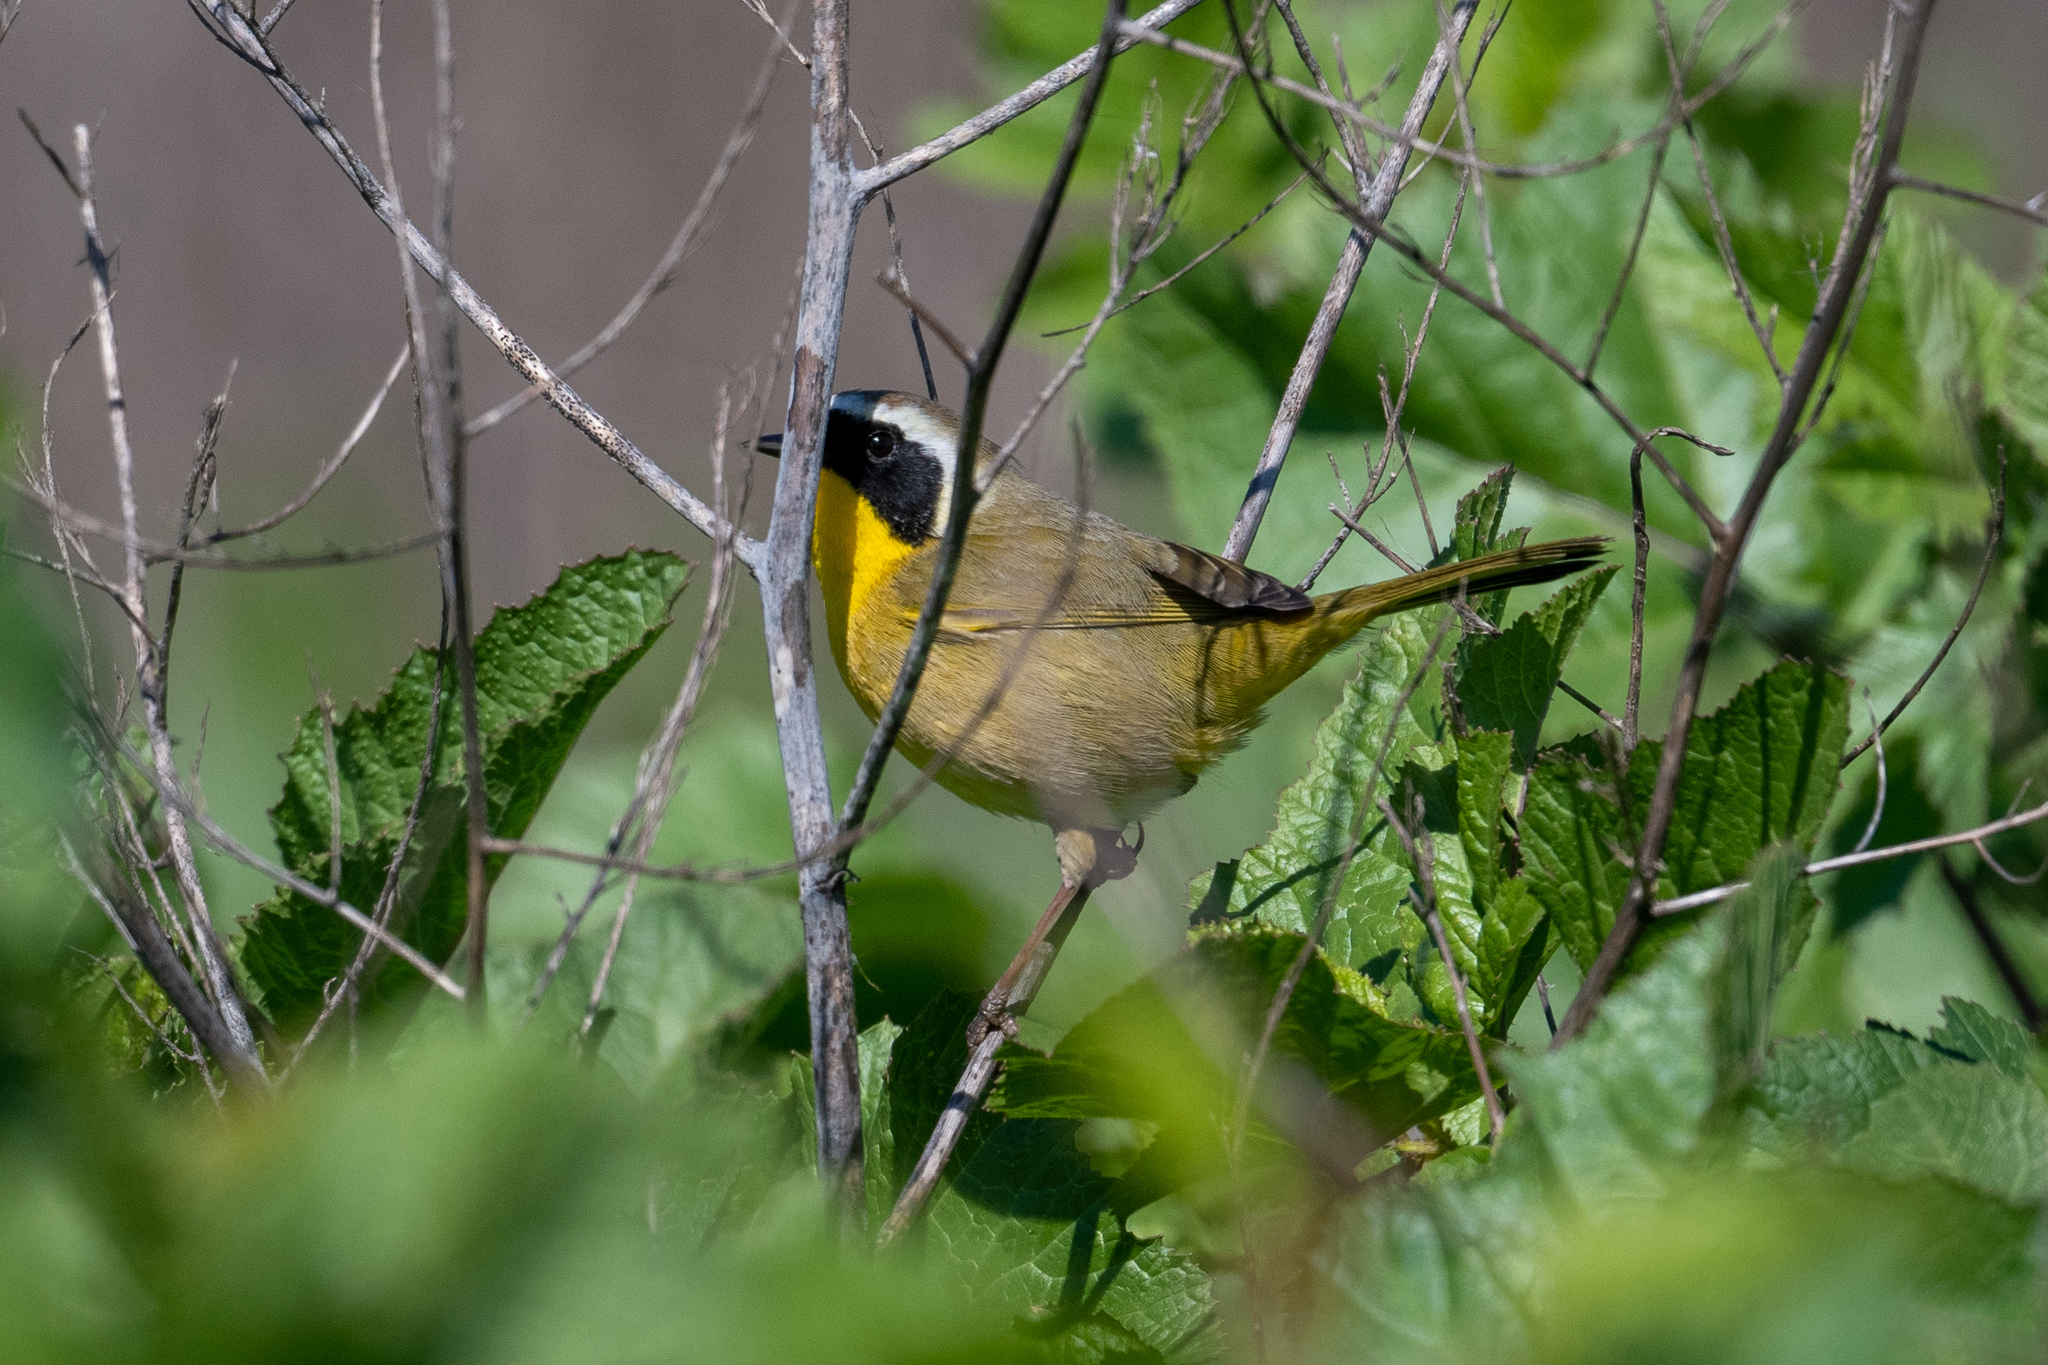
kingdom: Animalia
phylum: Chordata
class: Aves
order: Passeriformes
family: Parulidae
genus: Geothlypis
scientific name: Geothlypis trichas
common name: Common yellowthroat
